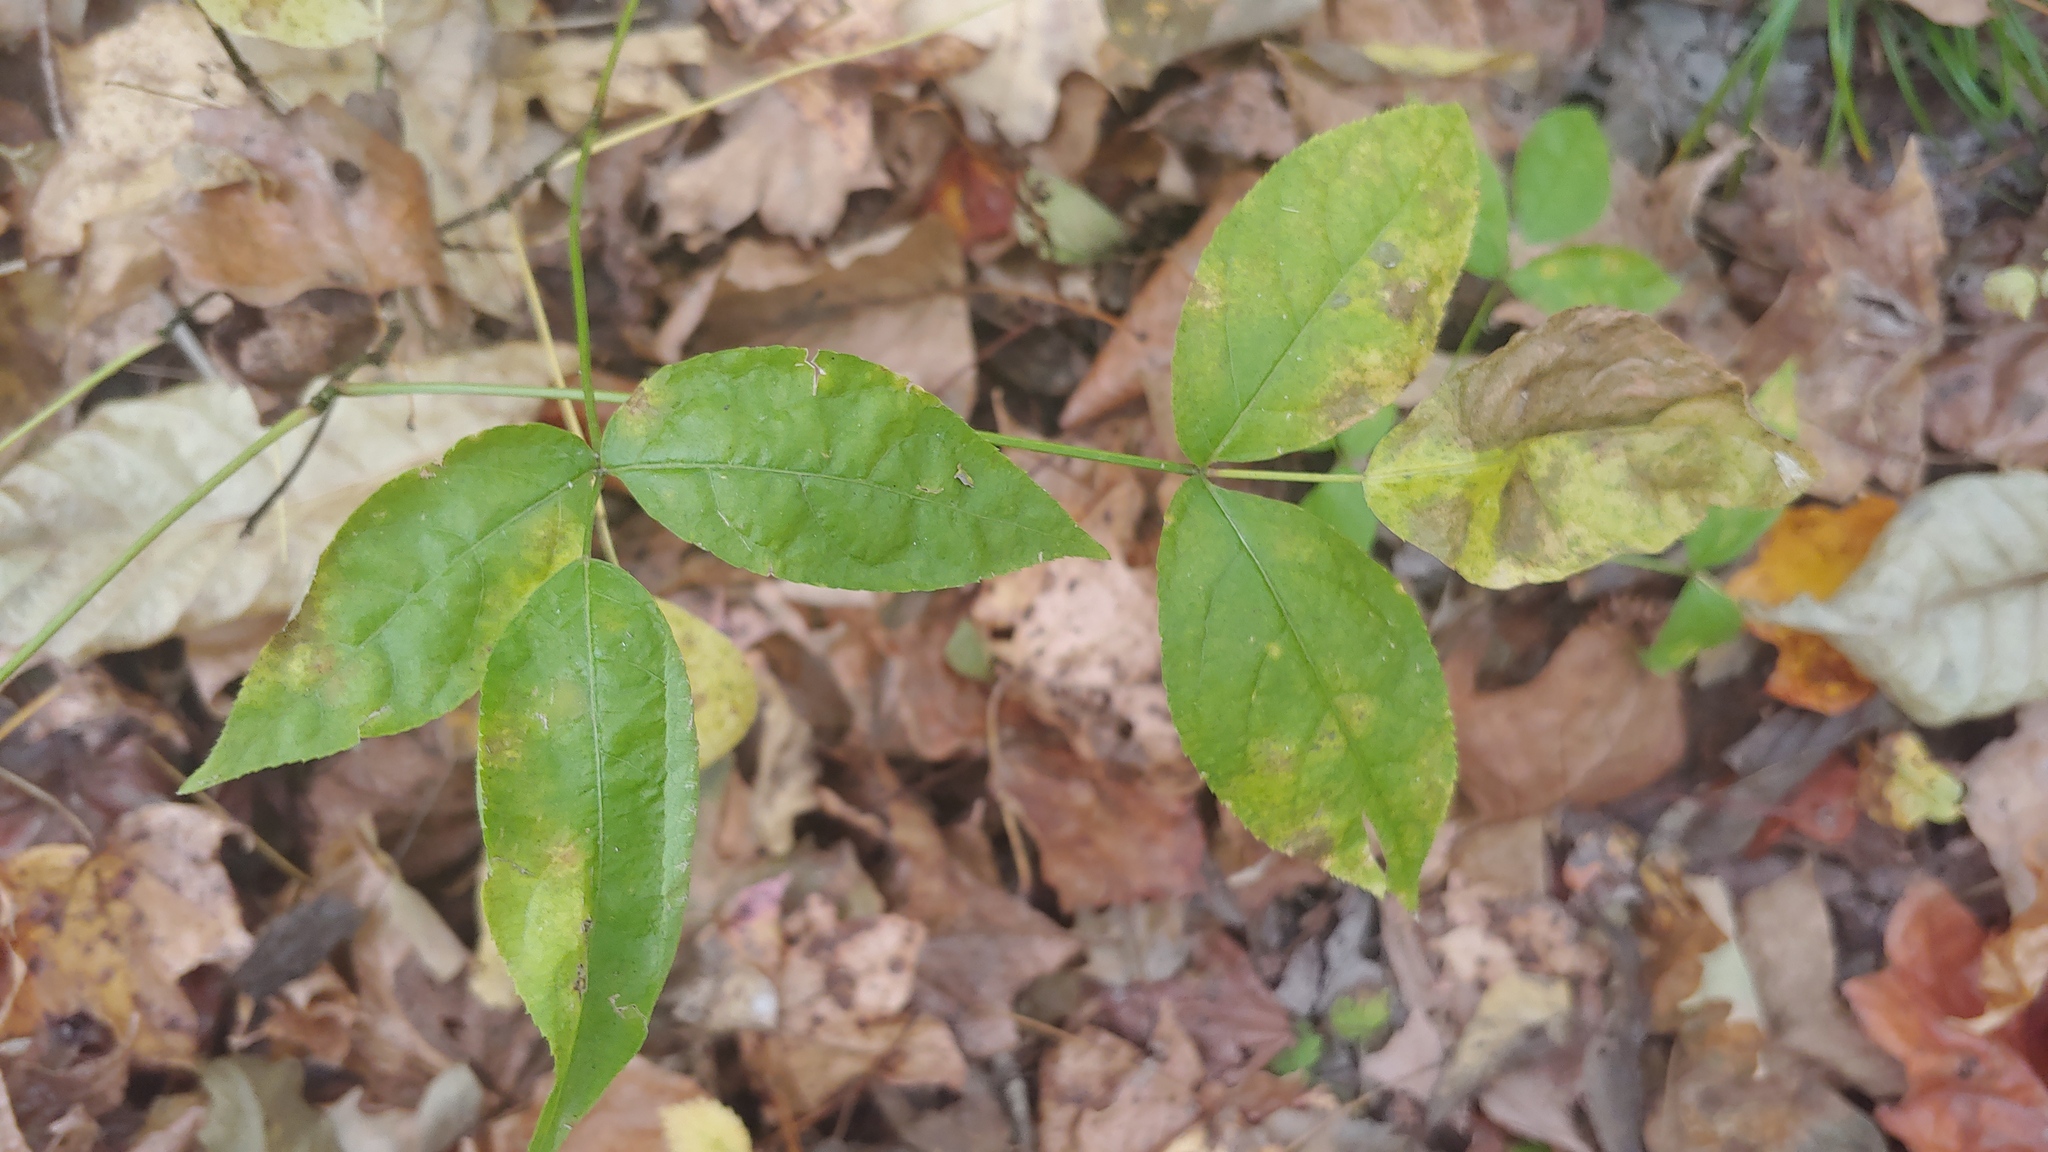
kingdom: Plantae
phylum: Tracheophyta
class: Magnoliopsida
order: Crossosomatales
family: Staphyleaceae
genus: Staphylea
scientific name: Staphylea trifolia
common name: American bladdernut
